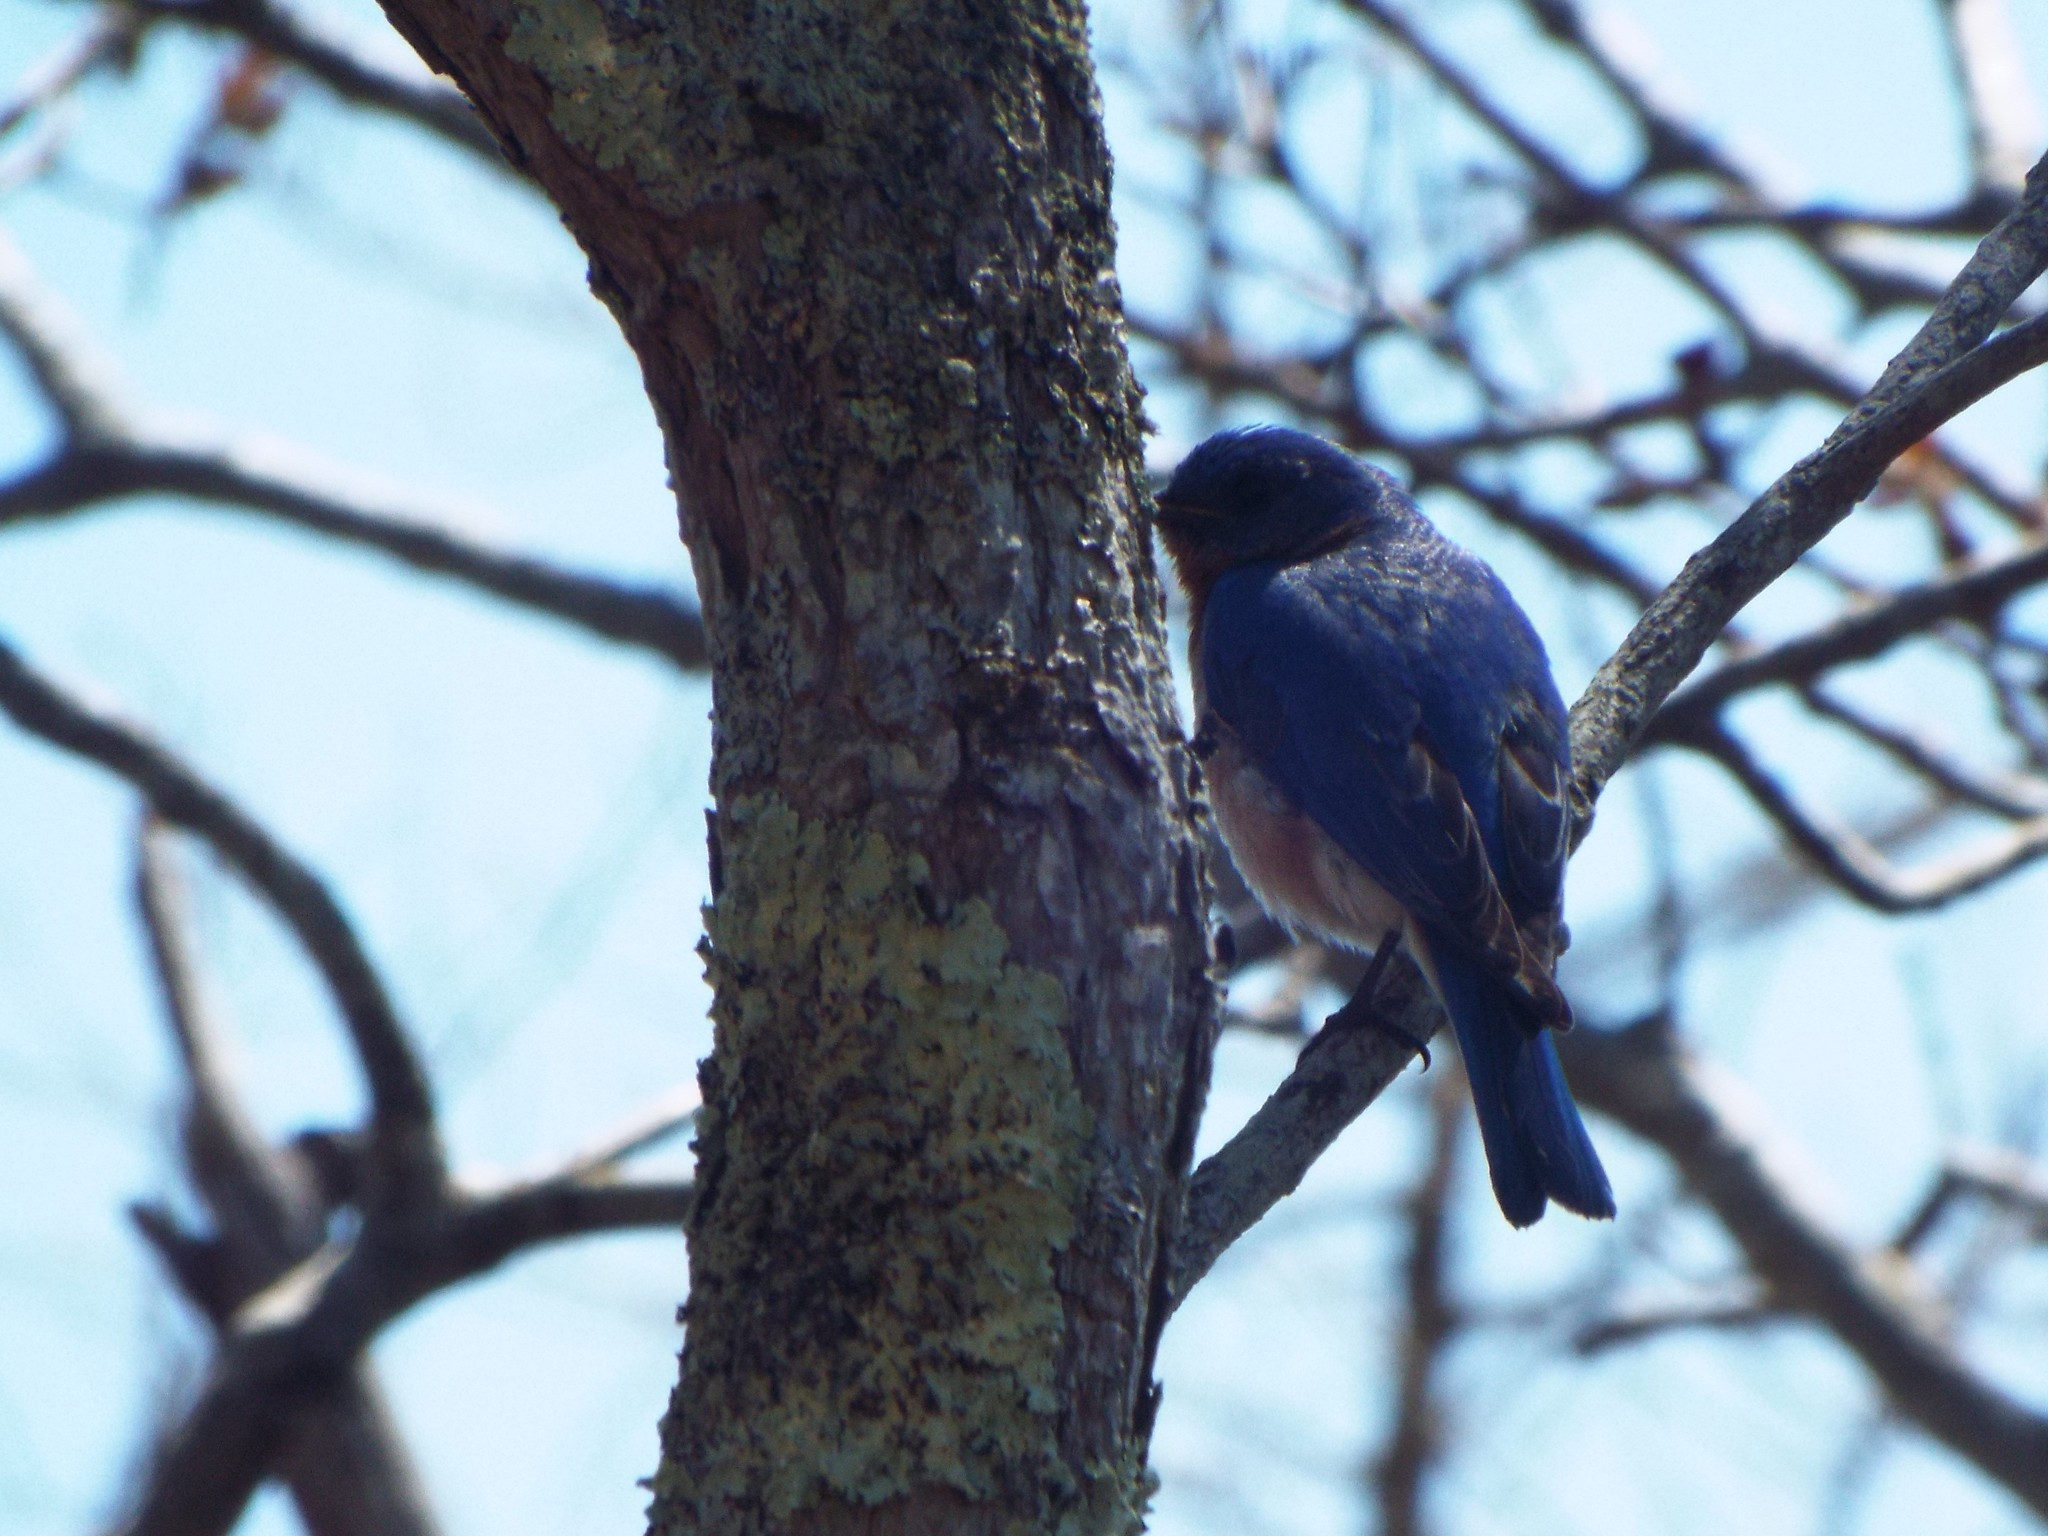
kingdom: Animalia
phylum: Chordata
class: Aves
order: Passeriformes
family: Turdidae
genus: Sialia
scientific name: Sialia sialis
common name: Eastern bluebird
